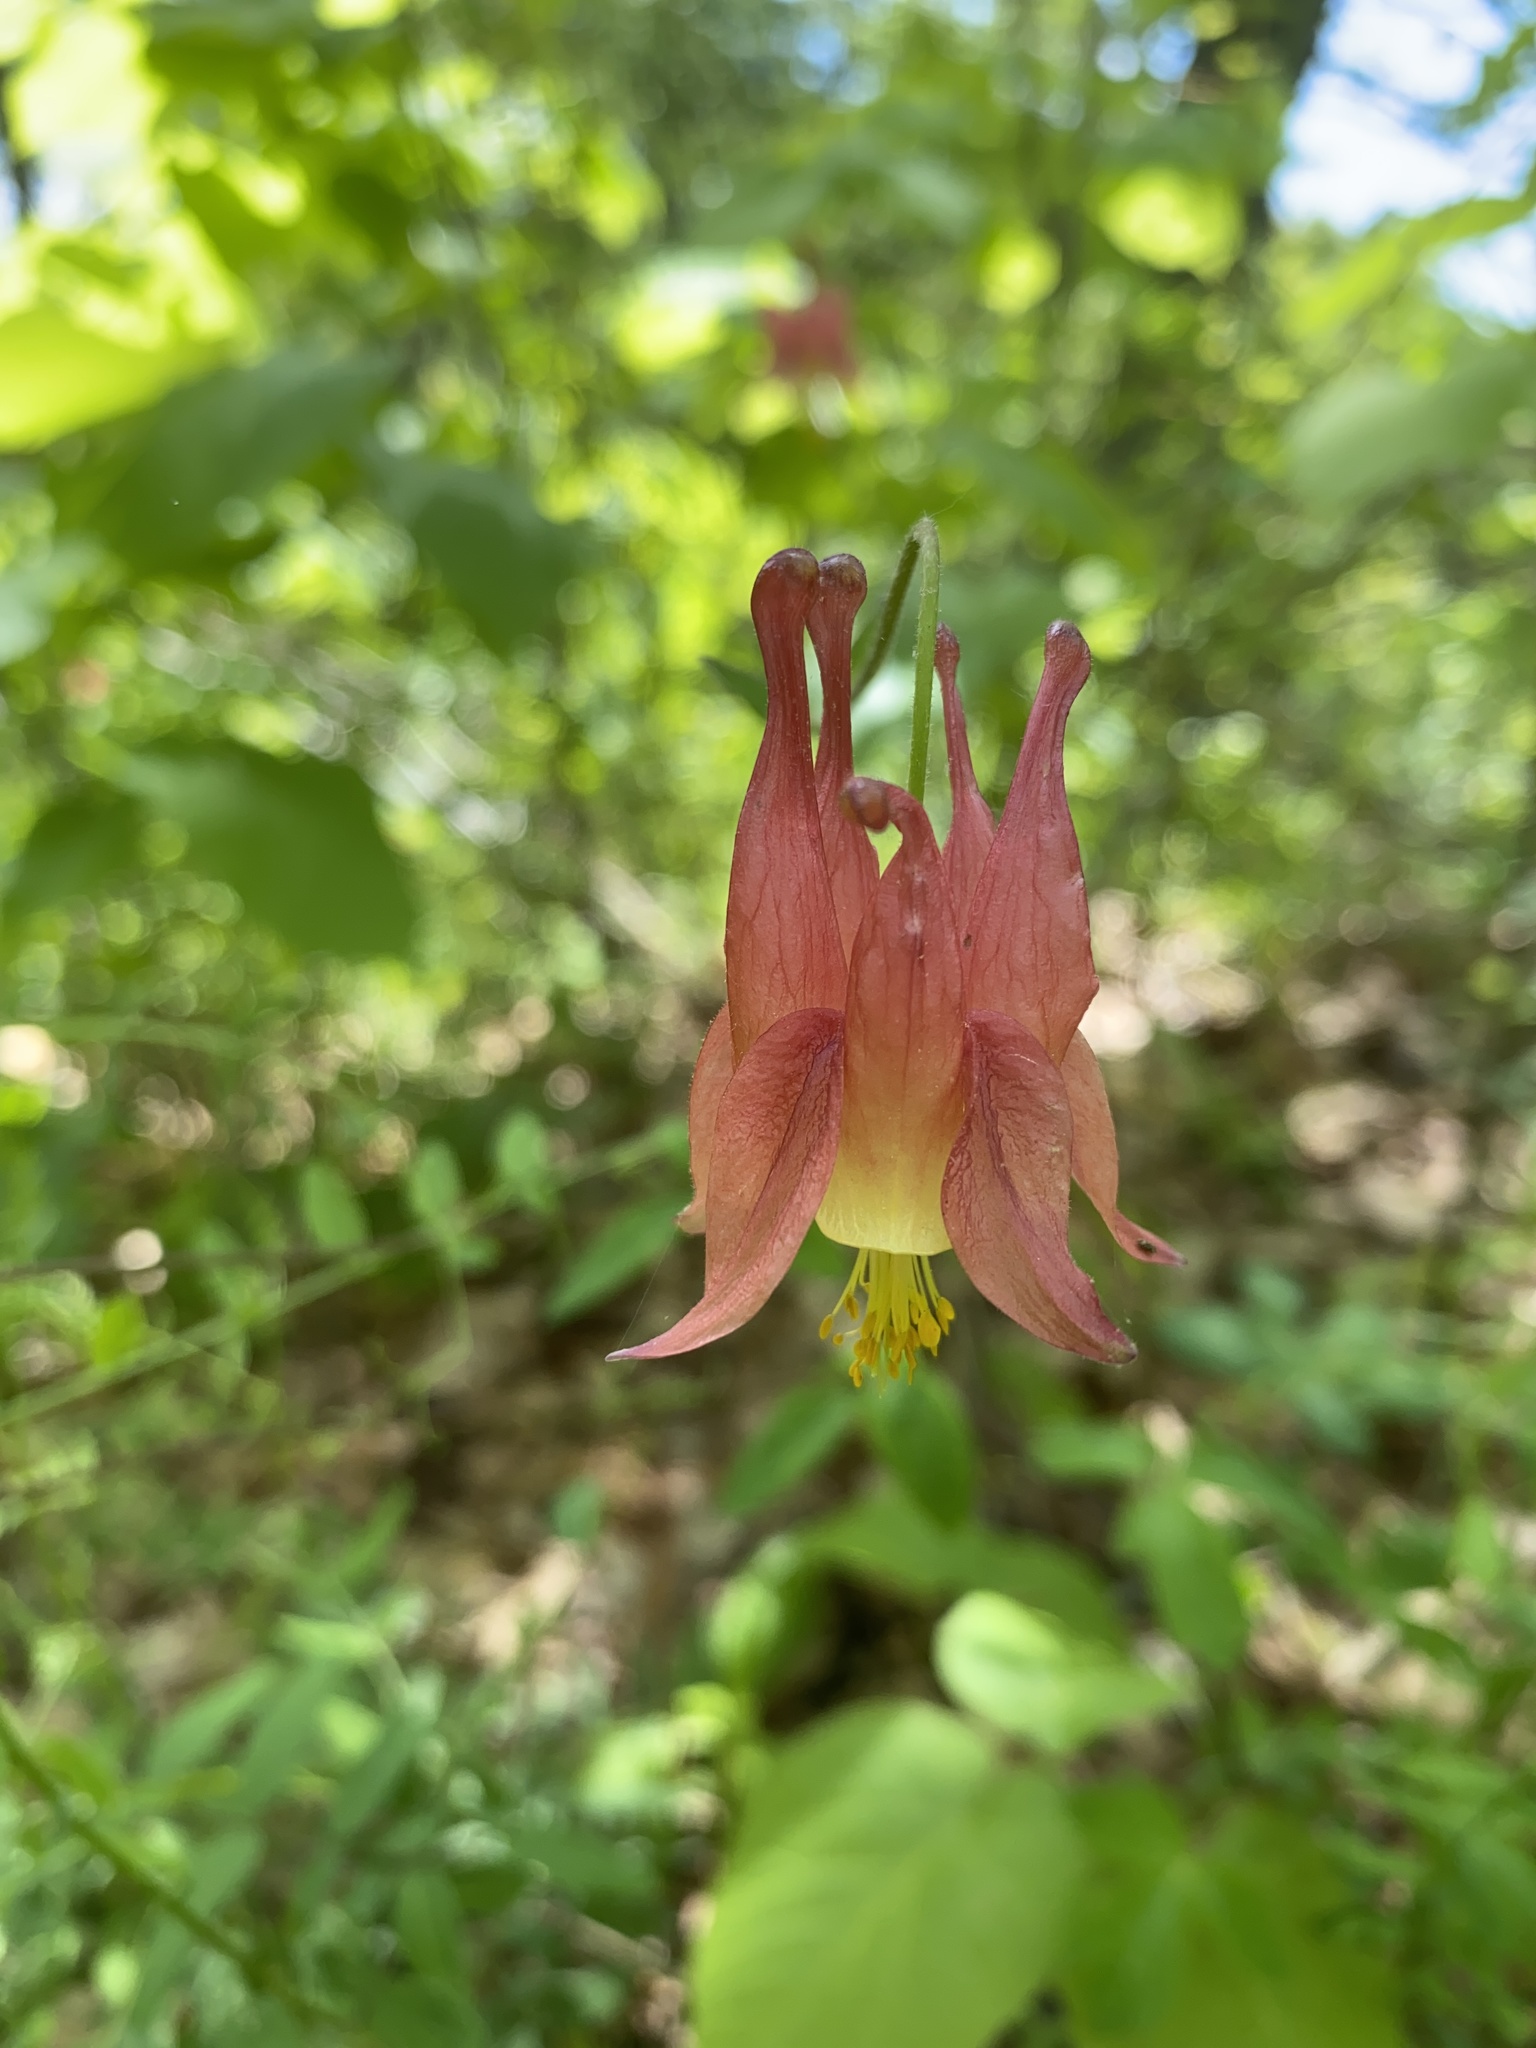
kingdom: Plantae
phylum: Tracheophyta
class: Magnoliopsida
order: Ranunculales
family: Ranunculaceae
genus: Aquilegia
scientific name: Aquilegia canadensis
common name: American columbine
